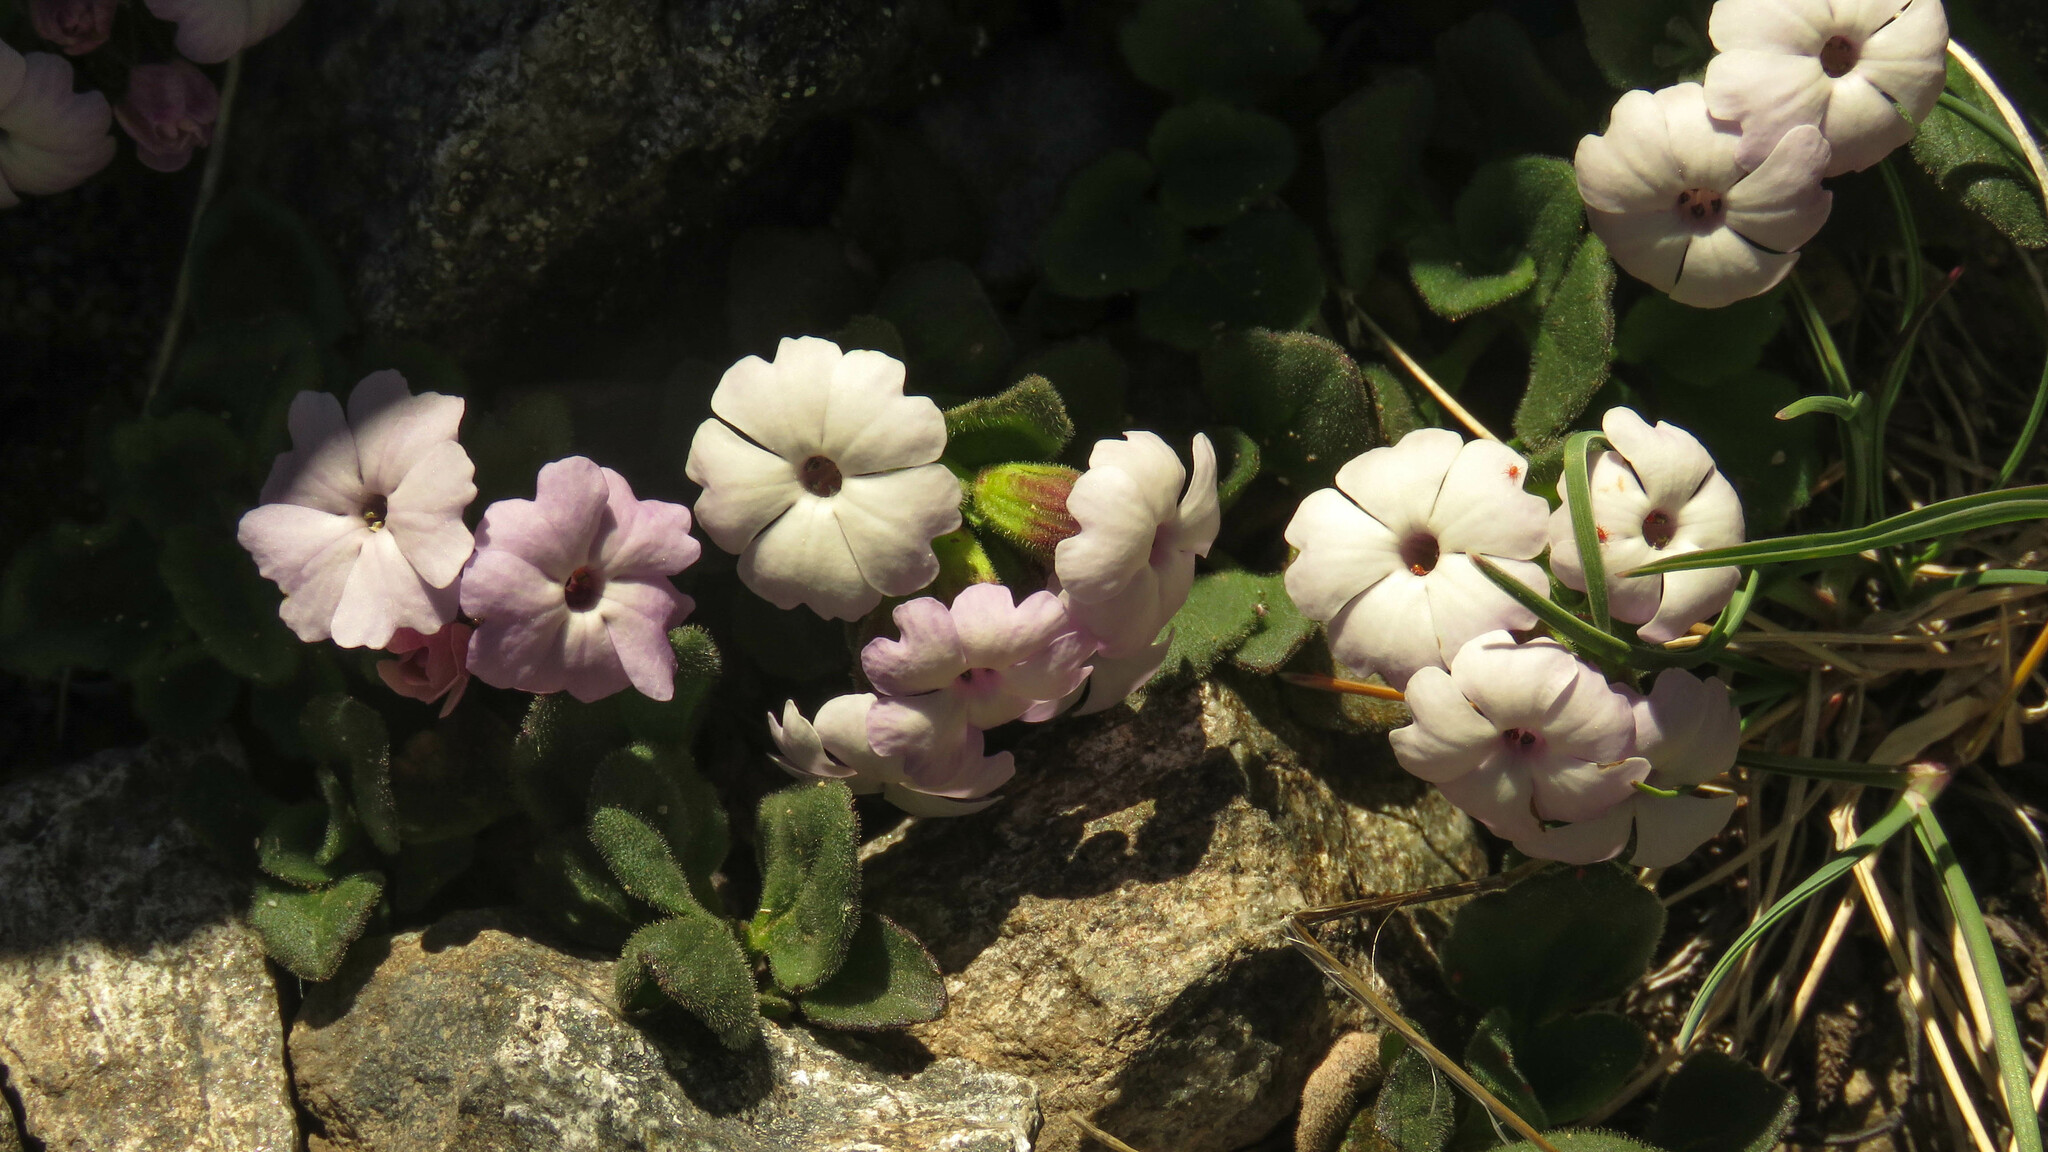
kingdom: Plantae
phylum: Tracheophyta
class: Magnoliopsida
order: Lamiales
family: Plantaginaceae
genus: Ourisia
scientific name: Ourisia fragrans
